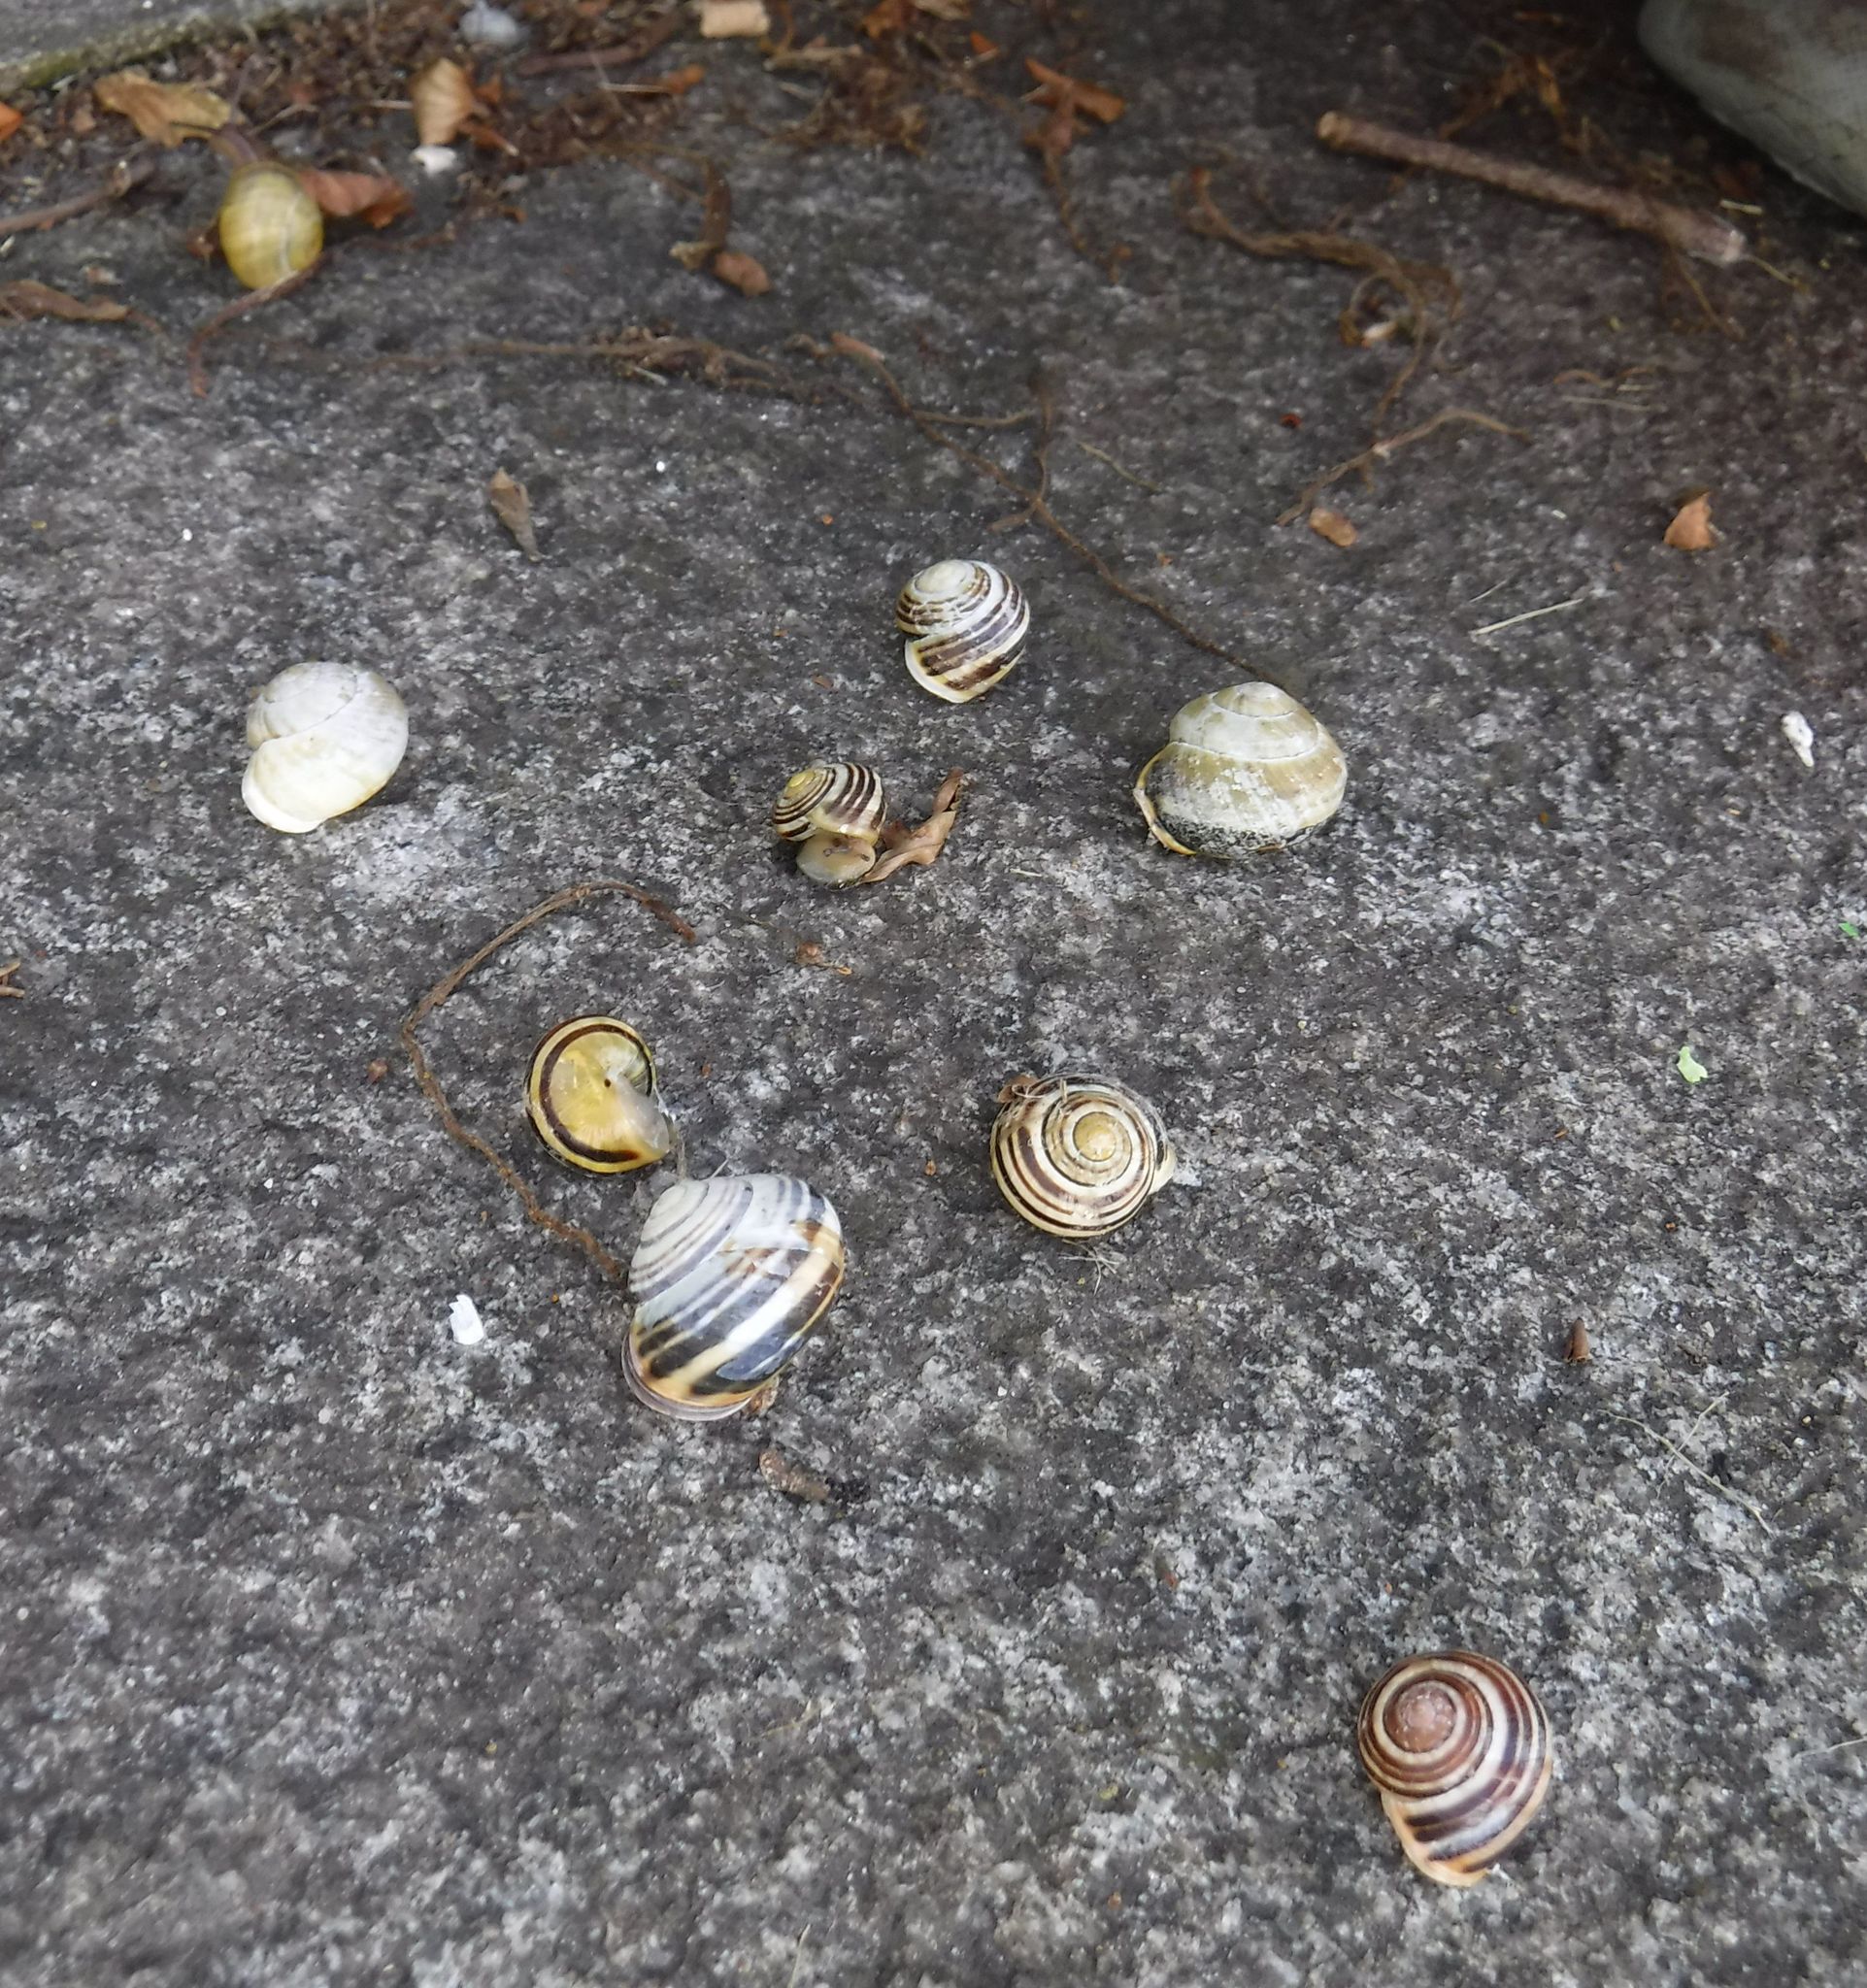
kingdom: Animalia
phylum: Mollusca
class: Gastropoda
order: Stylommatophora
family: Helicidae
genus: Cepaea
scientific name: Cepaea hortensis
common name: White-lip gardensnail
